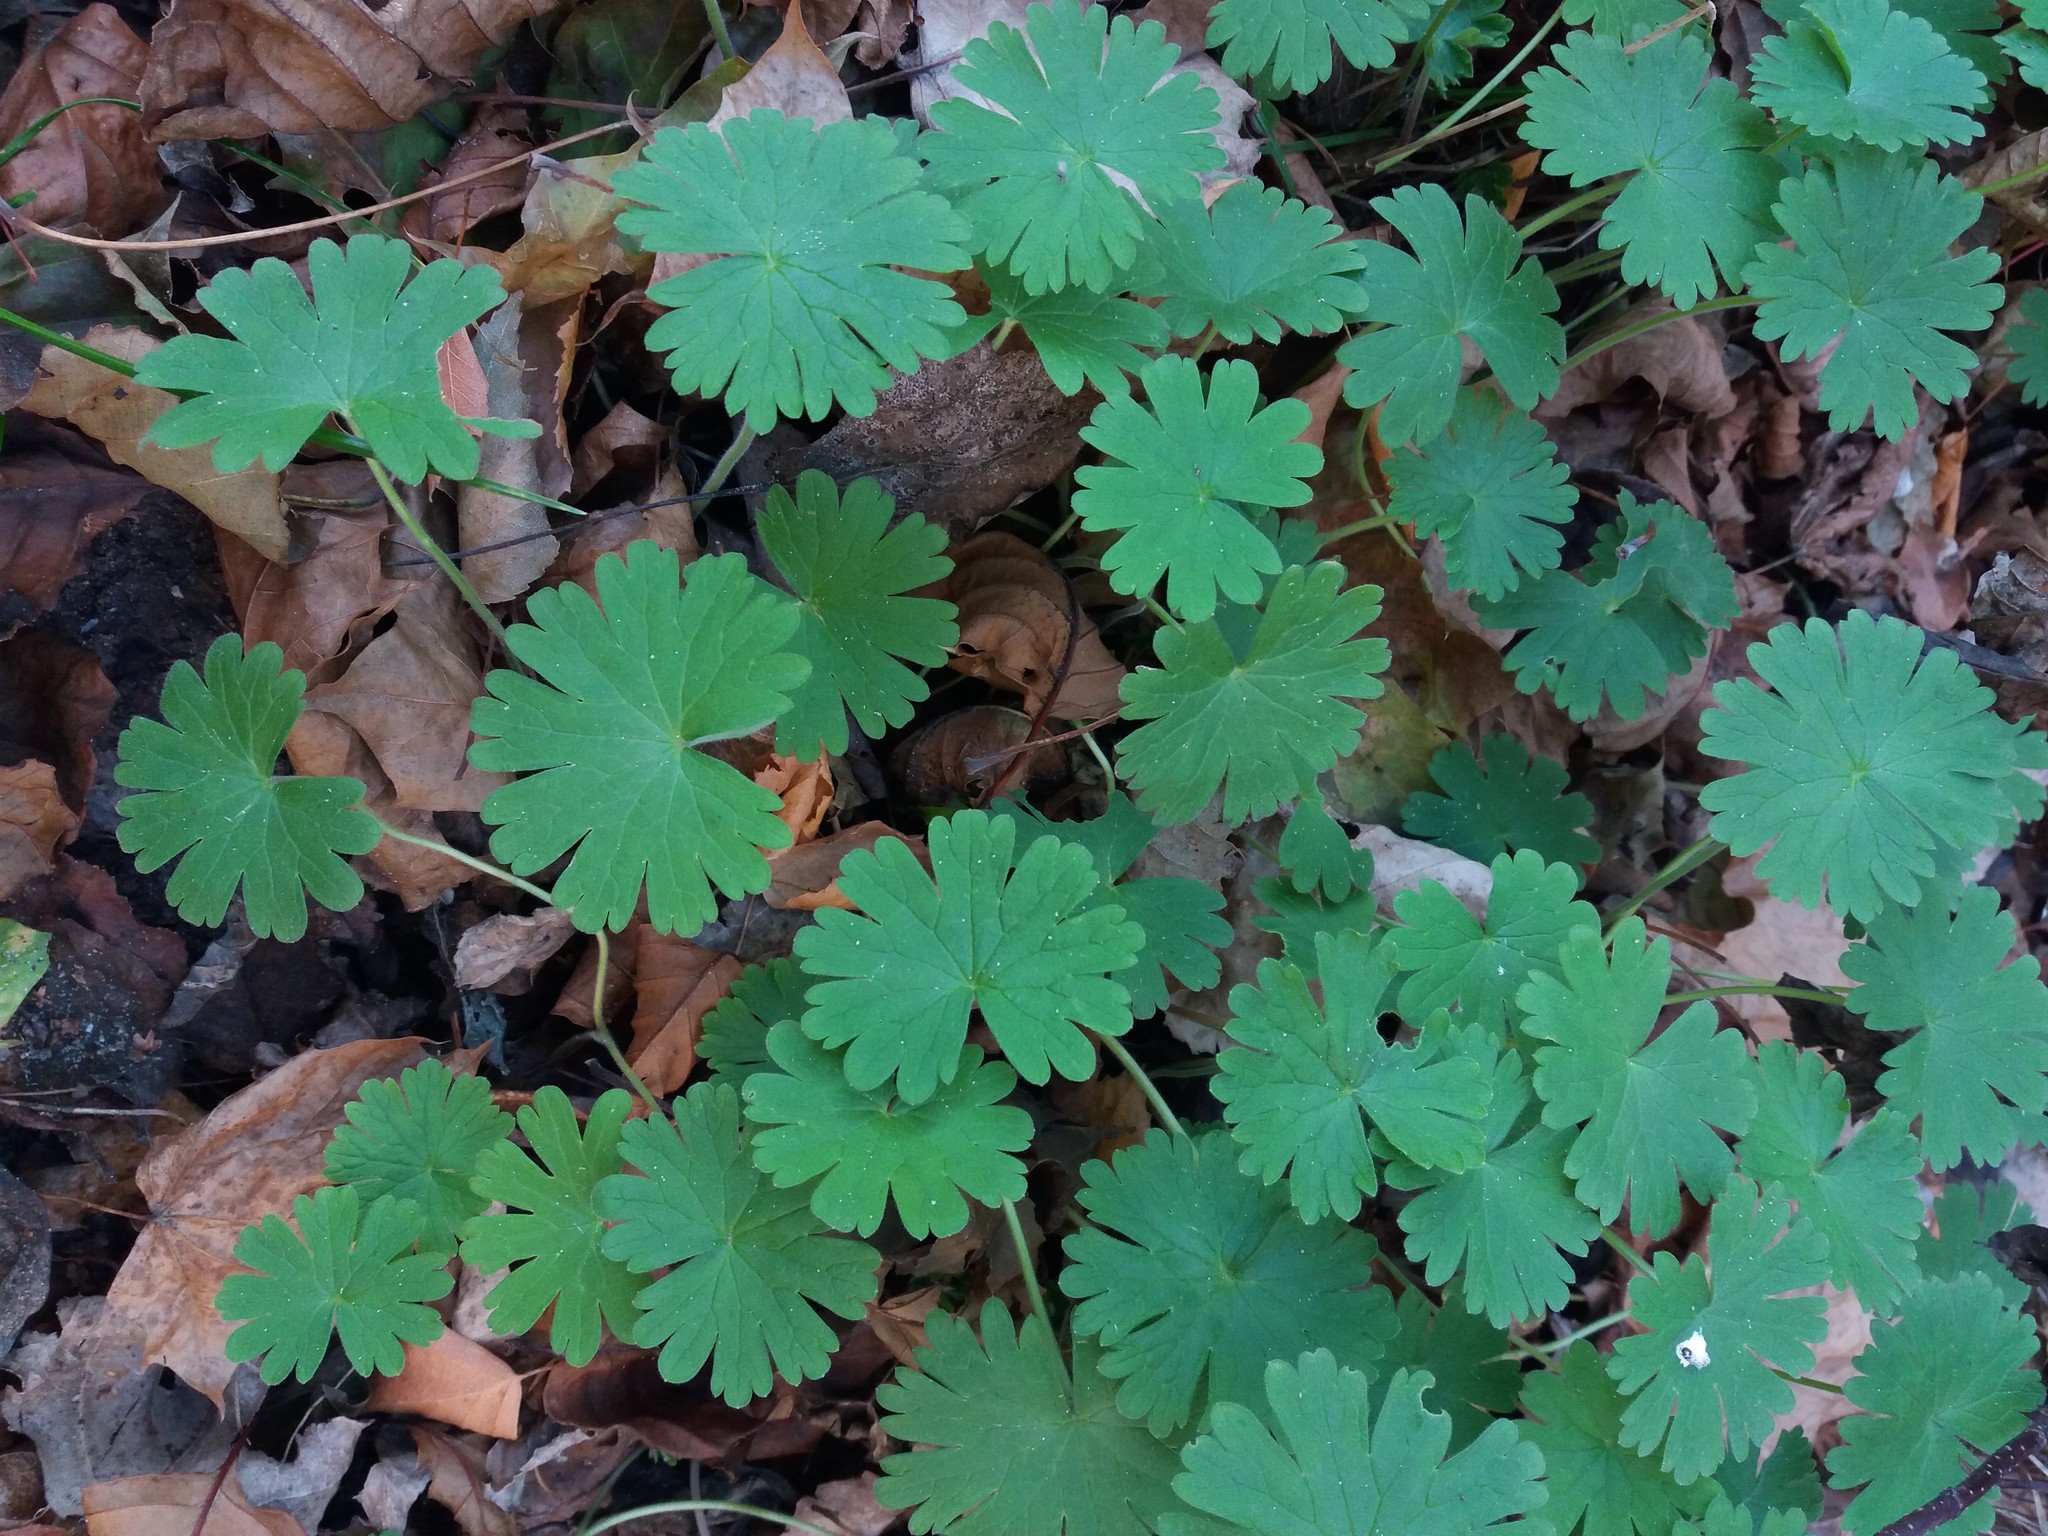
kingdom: Plantae
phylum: Tracheophyta
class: Magnoliopsida
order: Geraniales
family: Geraniaceae
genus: Geranium
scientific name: Geranium pusillum
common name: Small geranium
